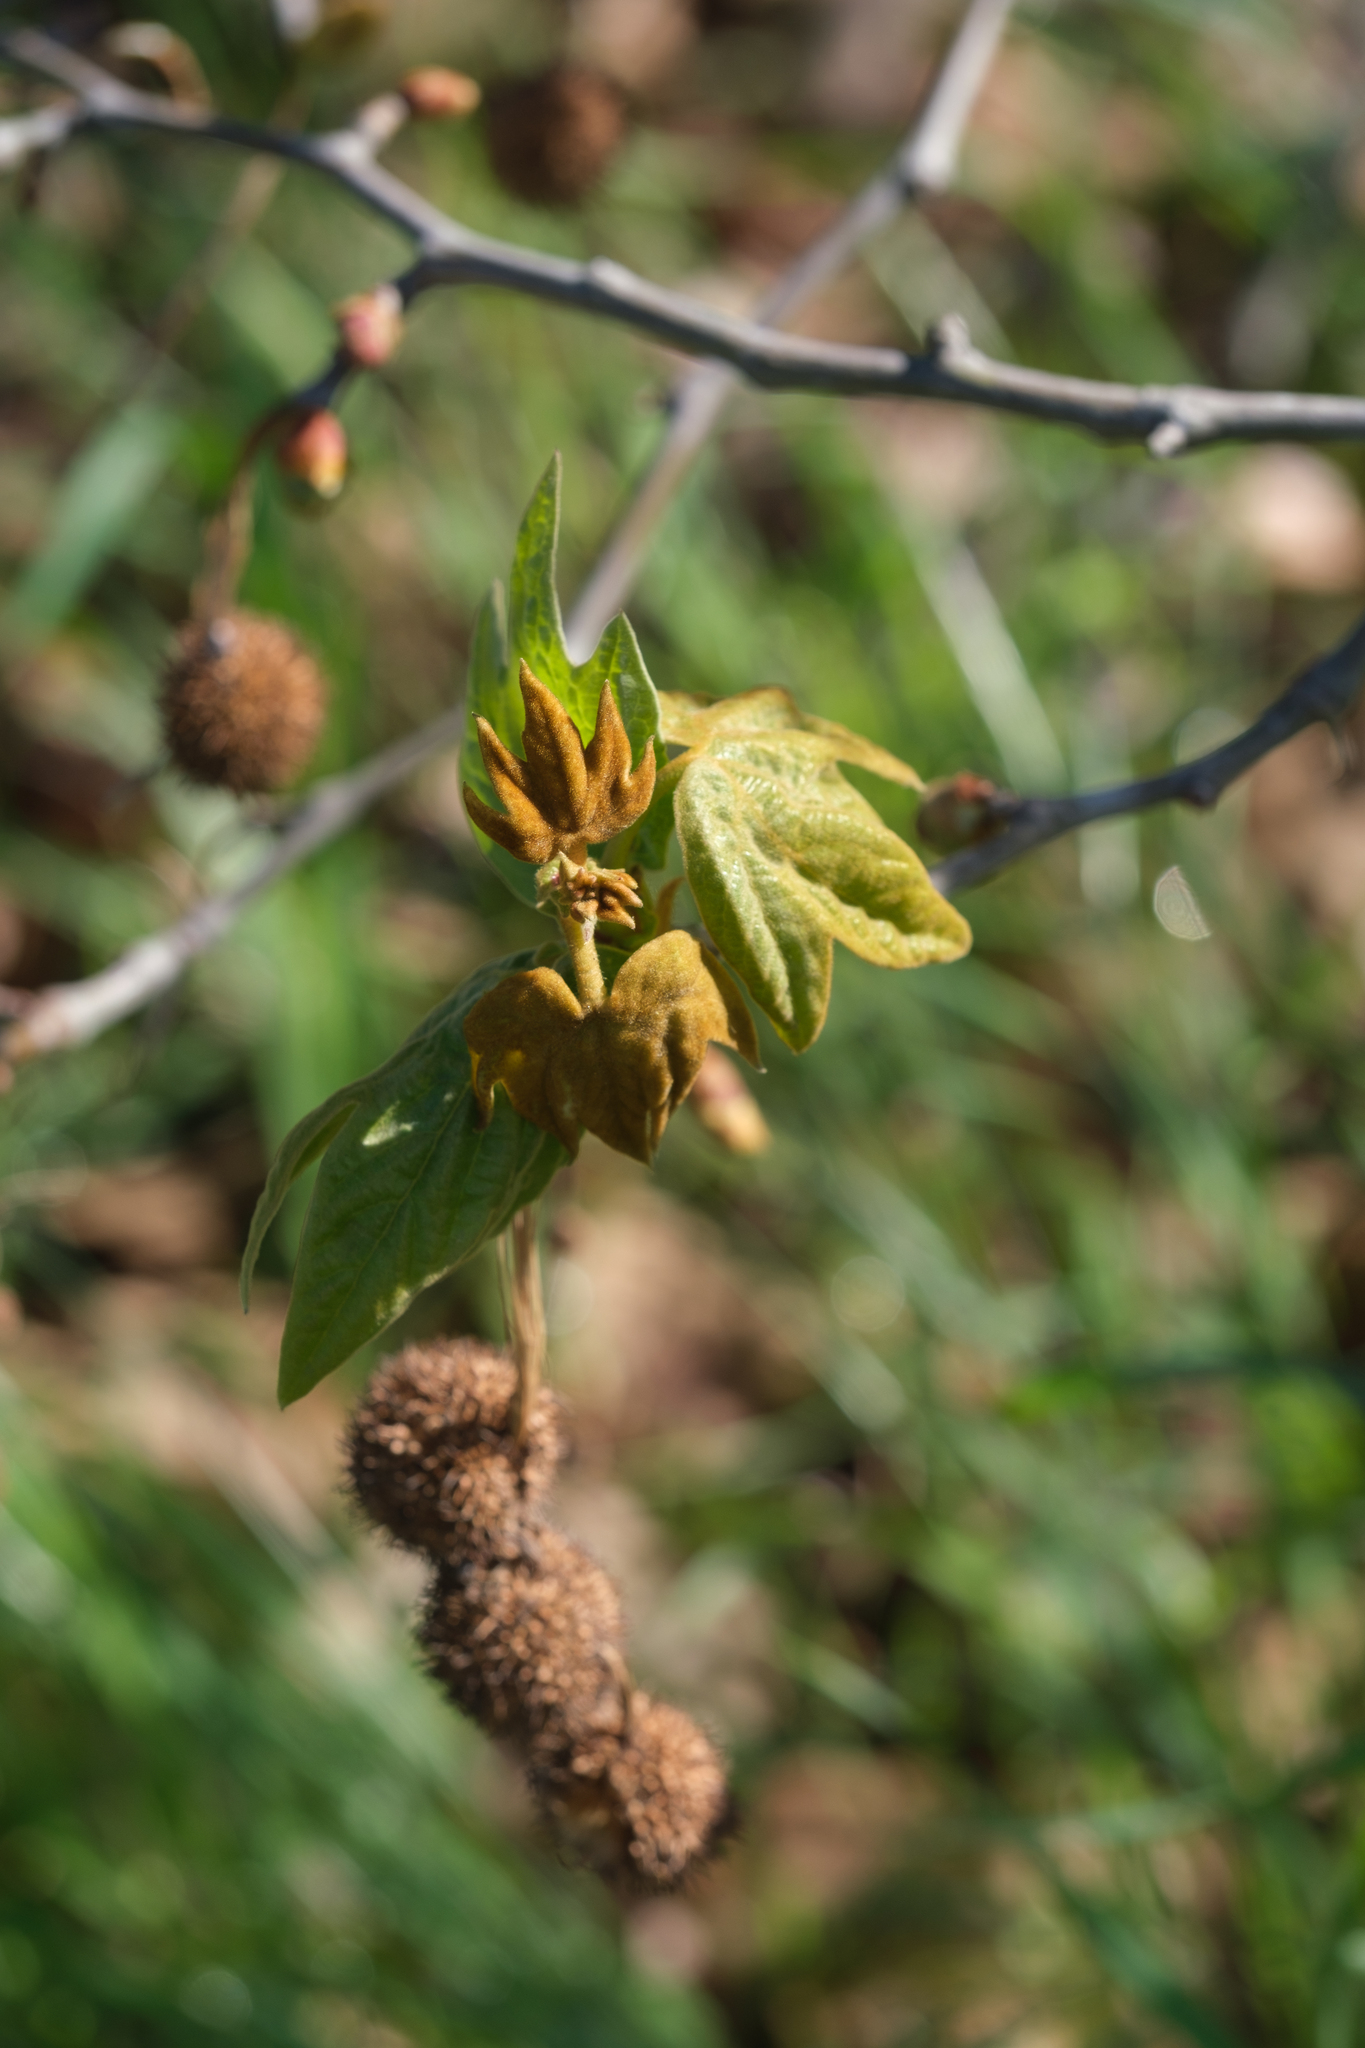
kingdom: Plantae
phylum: Tracheophyta
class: Magnoliopsida
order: Proteales
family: Platanaceae
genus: Platanus
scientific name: Platanus racemosa
